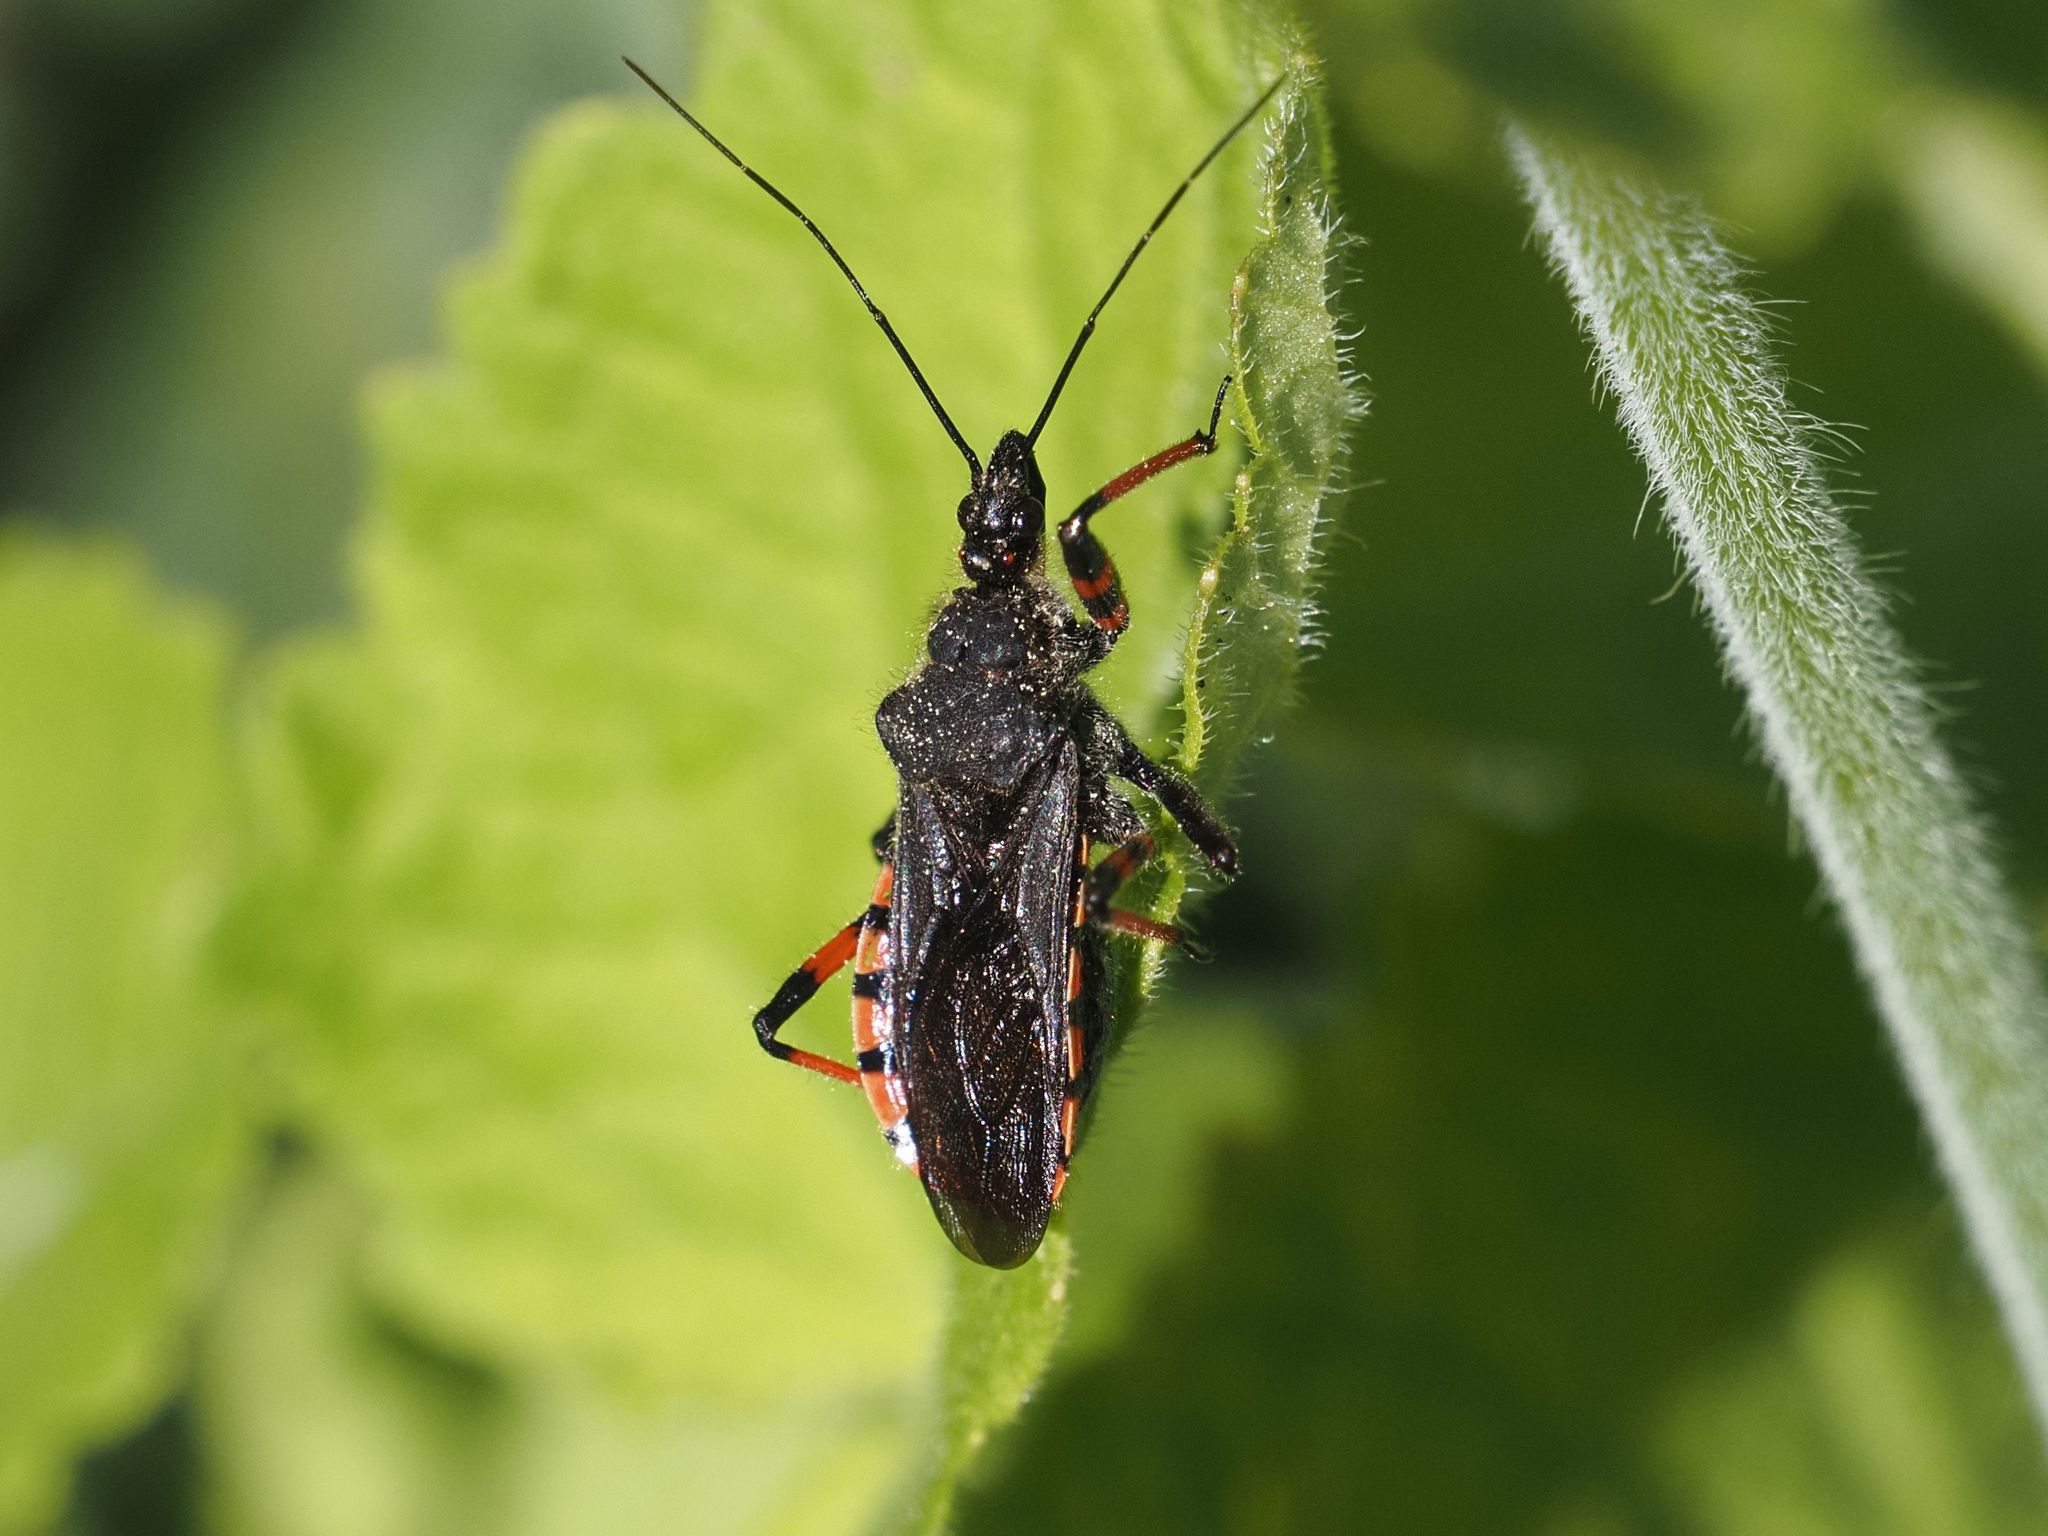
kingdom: Animalia
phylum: Arthropoda
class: Insecta
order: Hemiptera
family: Reduviidae
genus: Rhynocoris
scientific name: Rhynocoris annulatus
